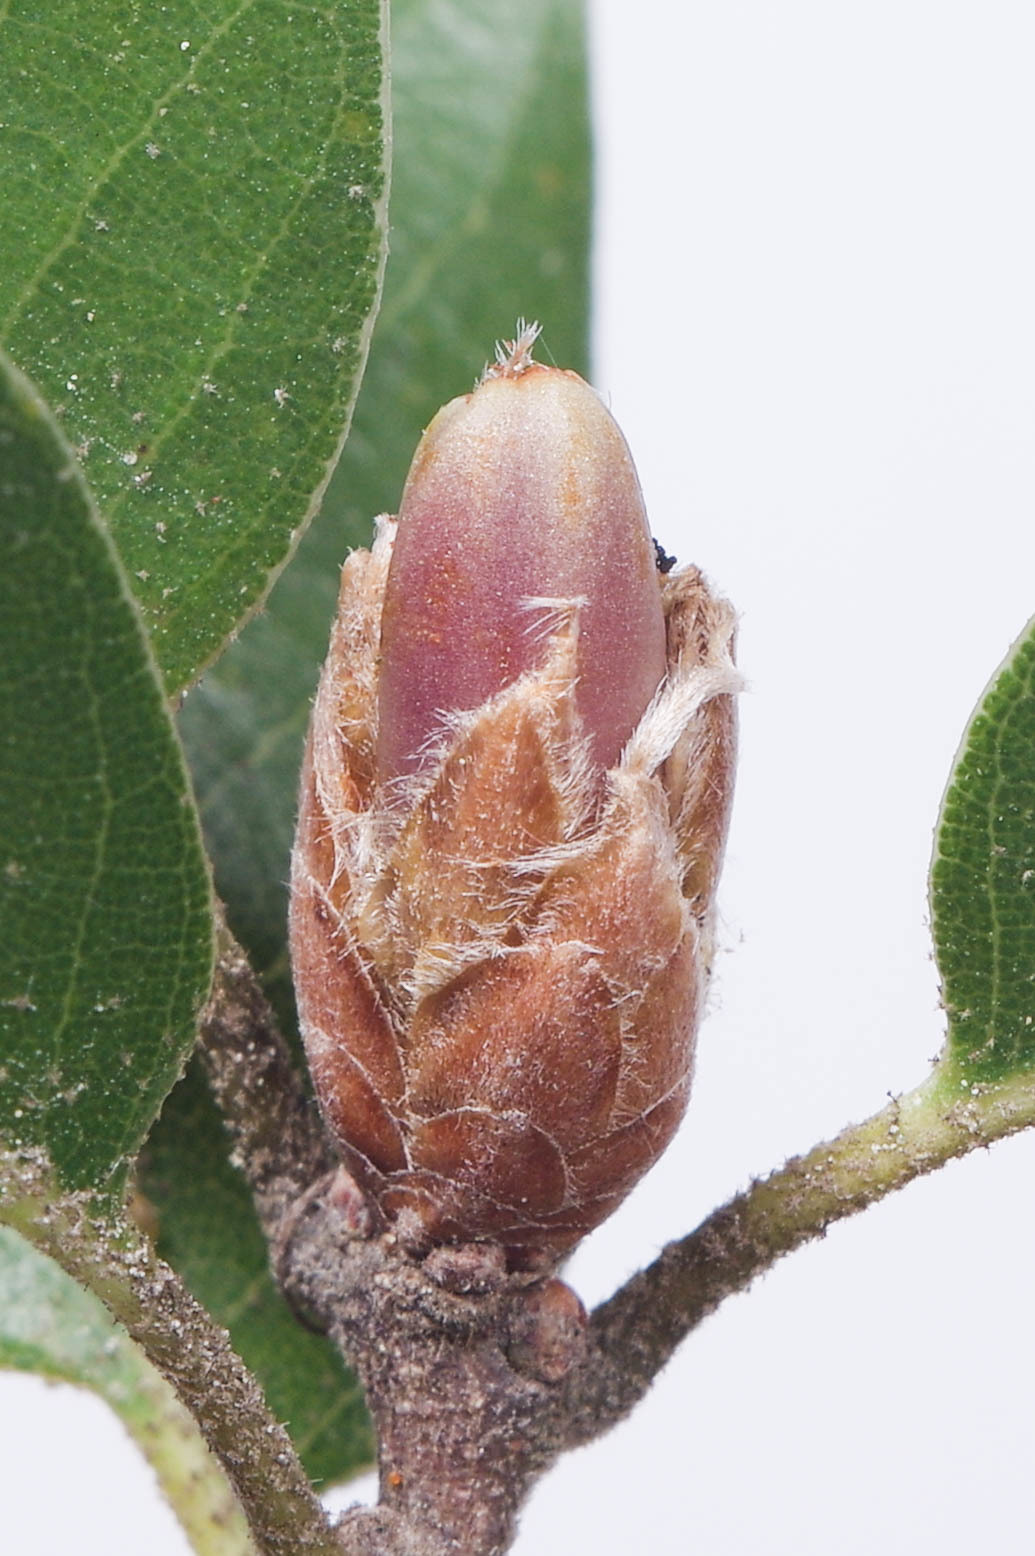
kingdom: Animalia
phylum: Arthropoda
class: Insecta
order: Hymenoptera
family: Cynipidae
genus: Andricus
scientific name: Andricus
